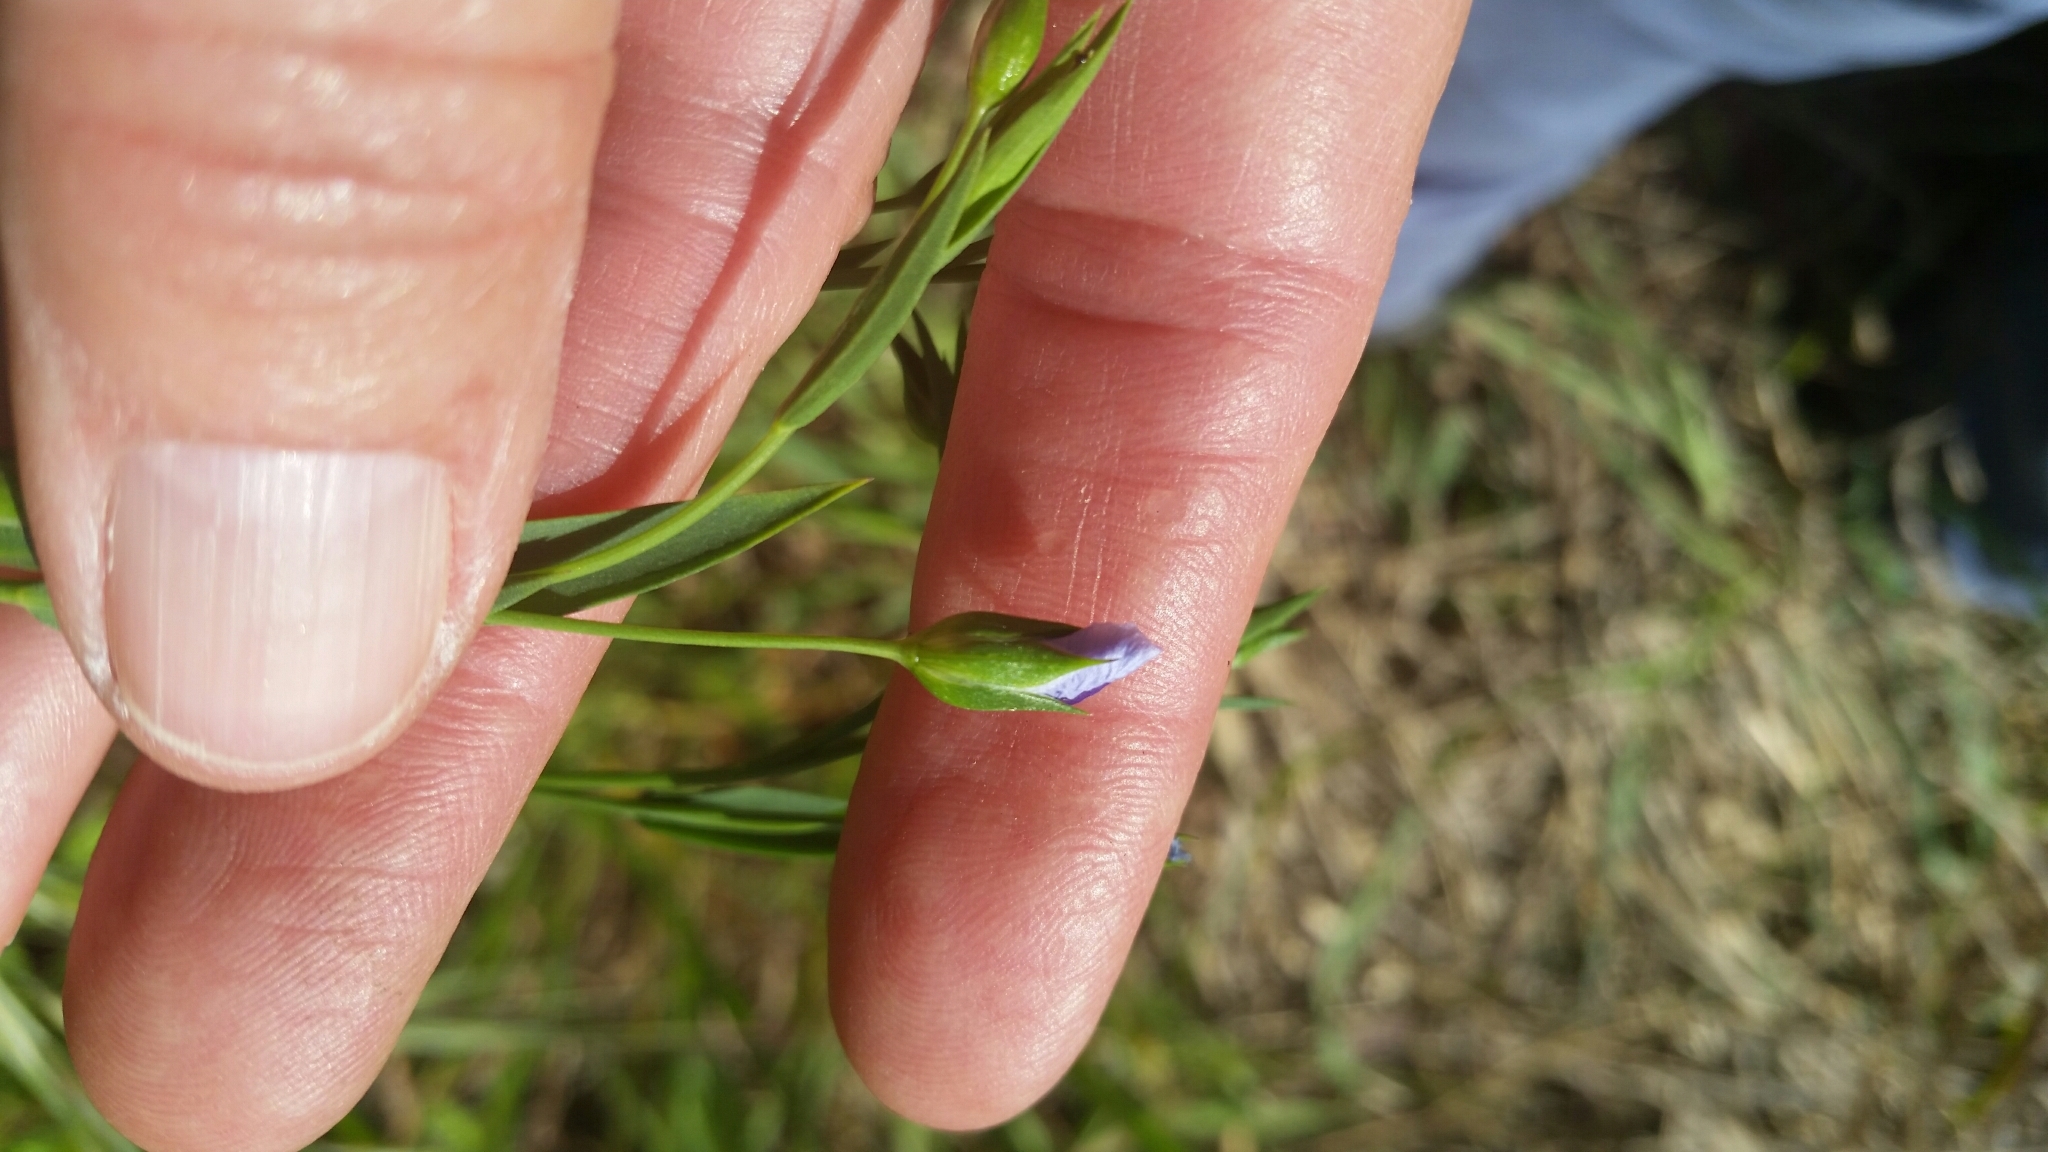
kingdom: Plantae
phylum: Tracheophyta
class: Magnoliopsida
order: Malpighiales
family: Linaceae
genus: Linum
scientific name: Linum usitatissimum
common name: Flax
